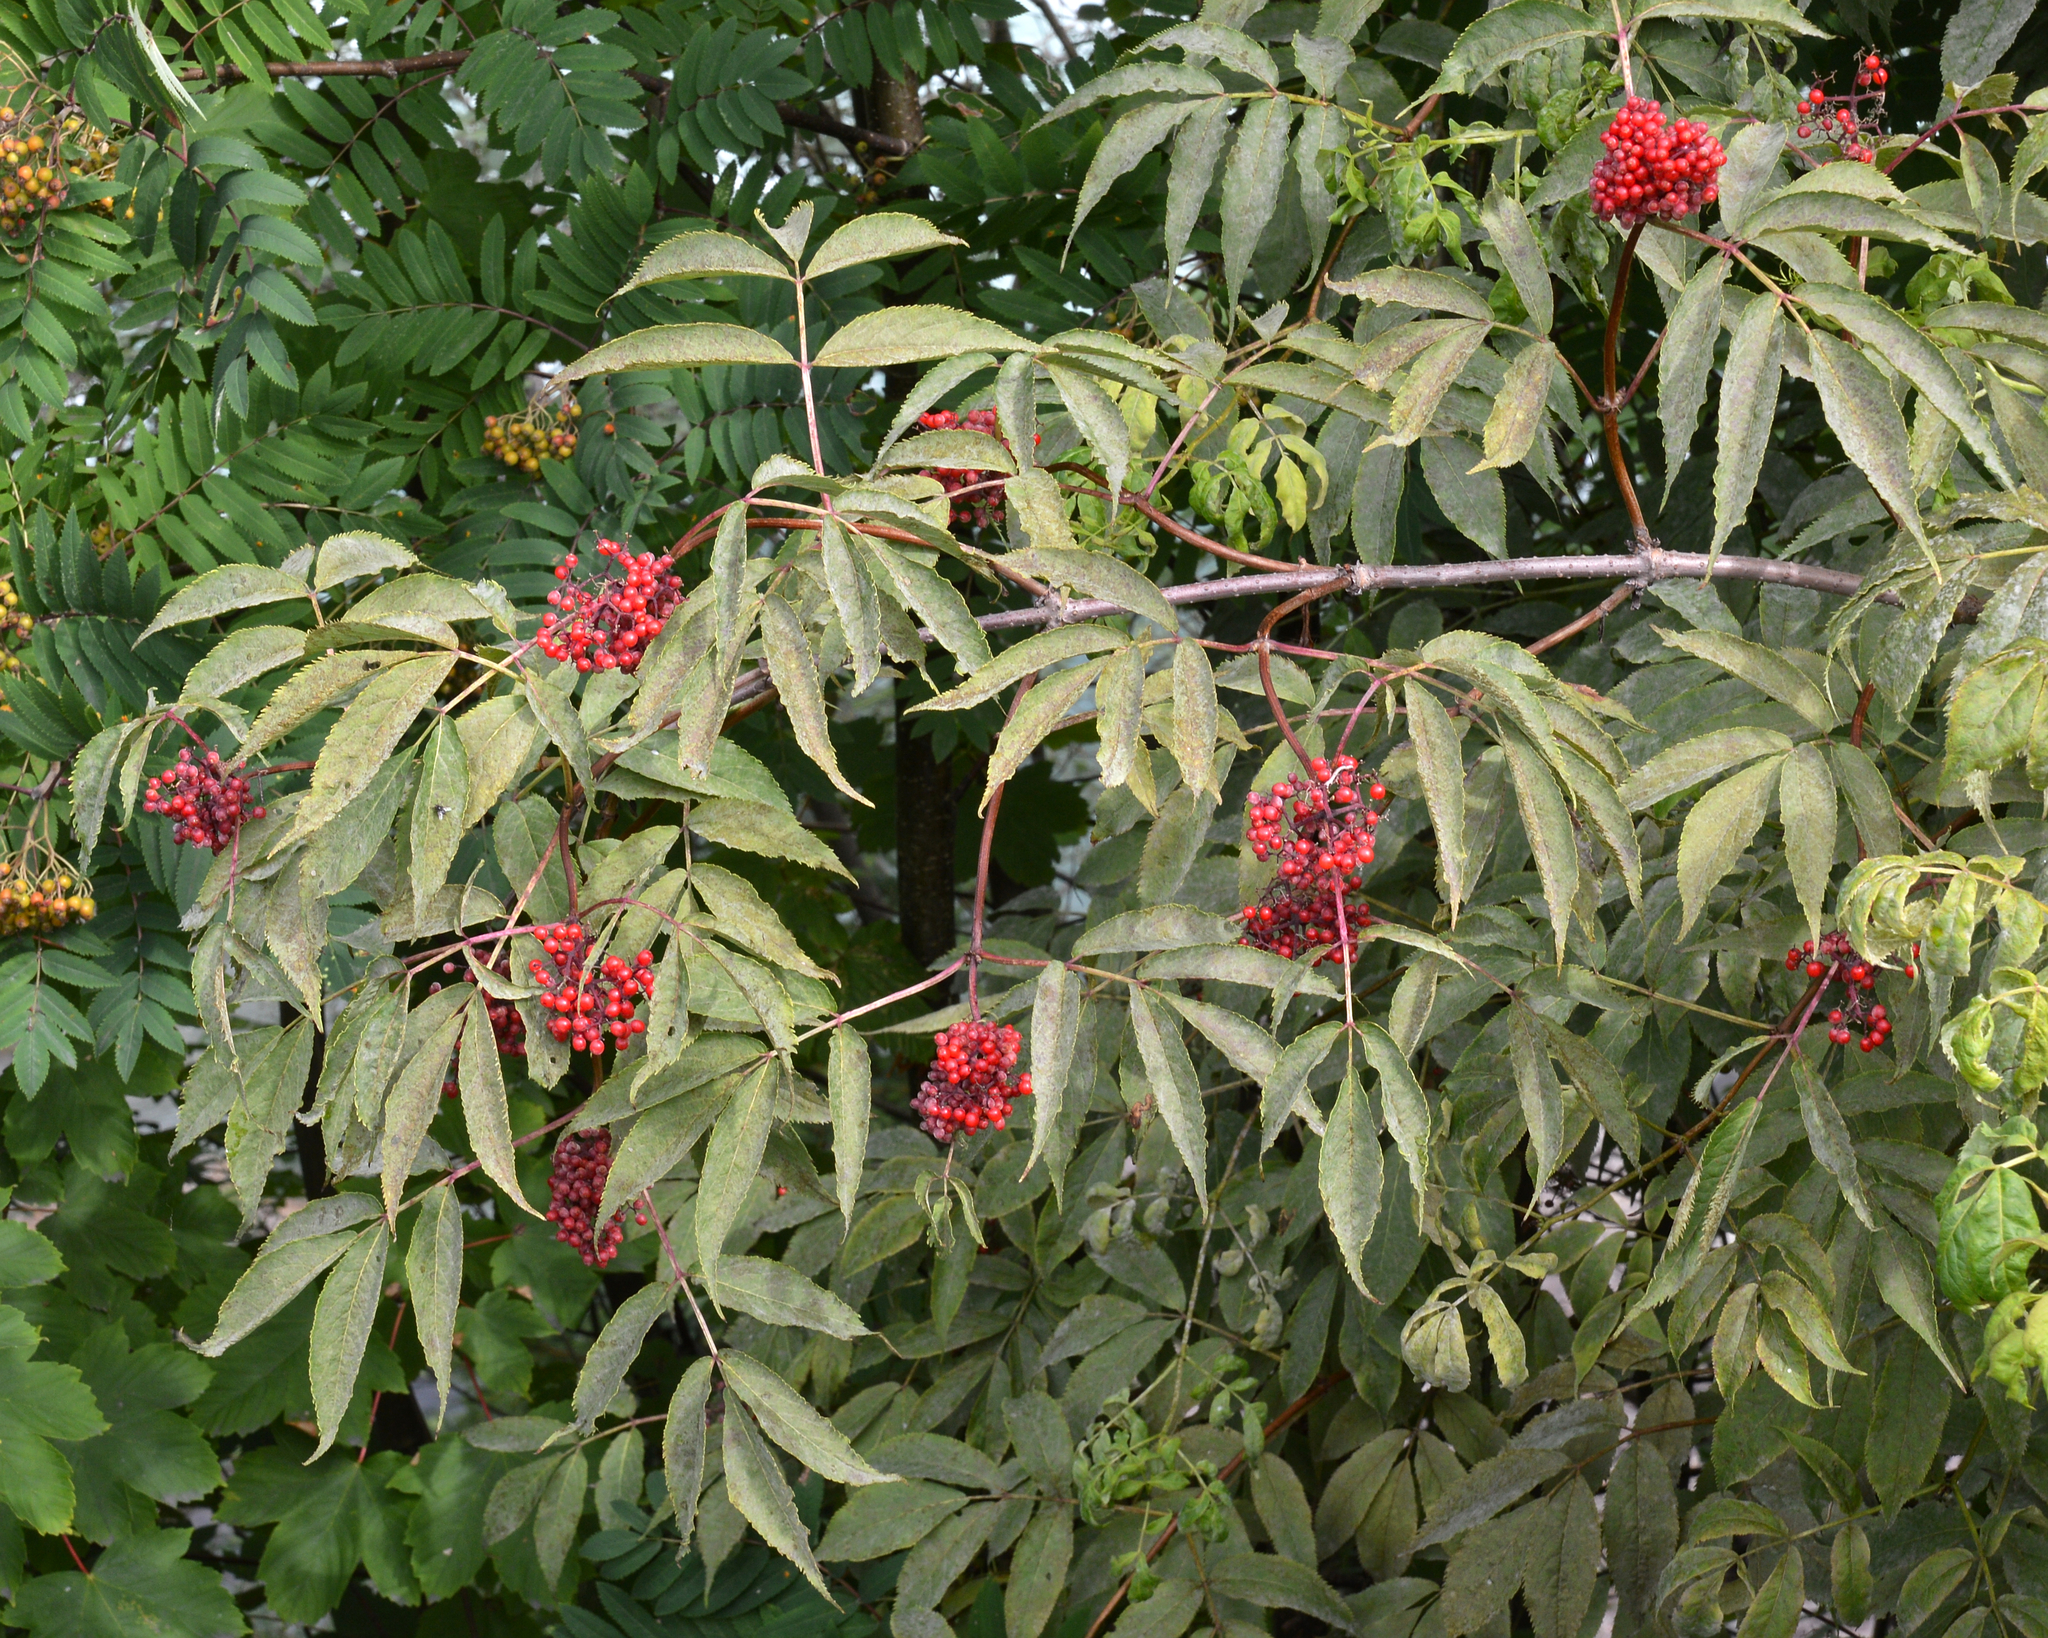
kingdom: Plantae
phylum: Tracheophyta
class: Magnoliopsida
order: Dipsacales
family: Viburnaceae
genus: Sambucus
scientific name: Sambucus racemosa
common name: Red-berried elder
